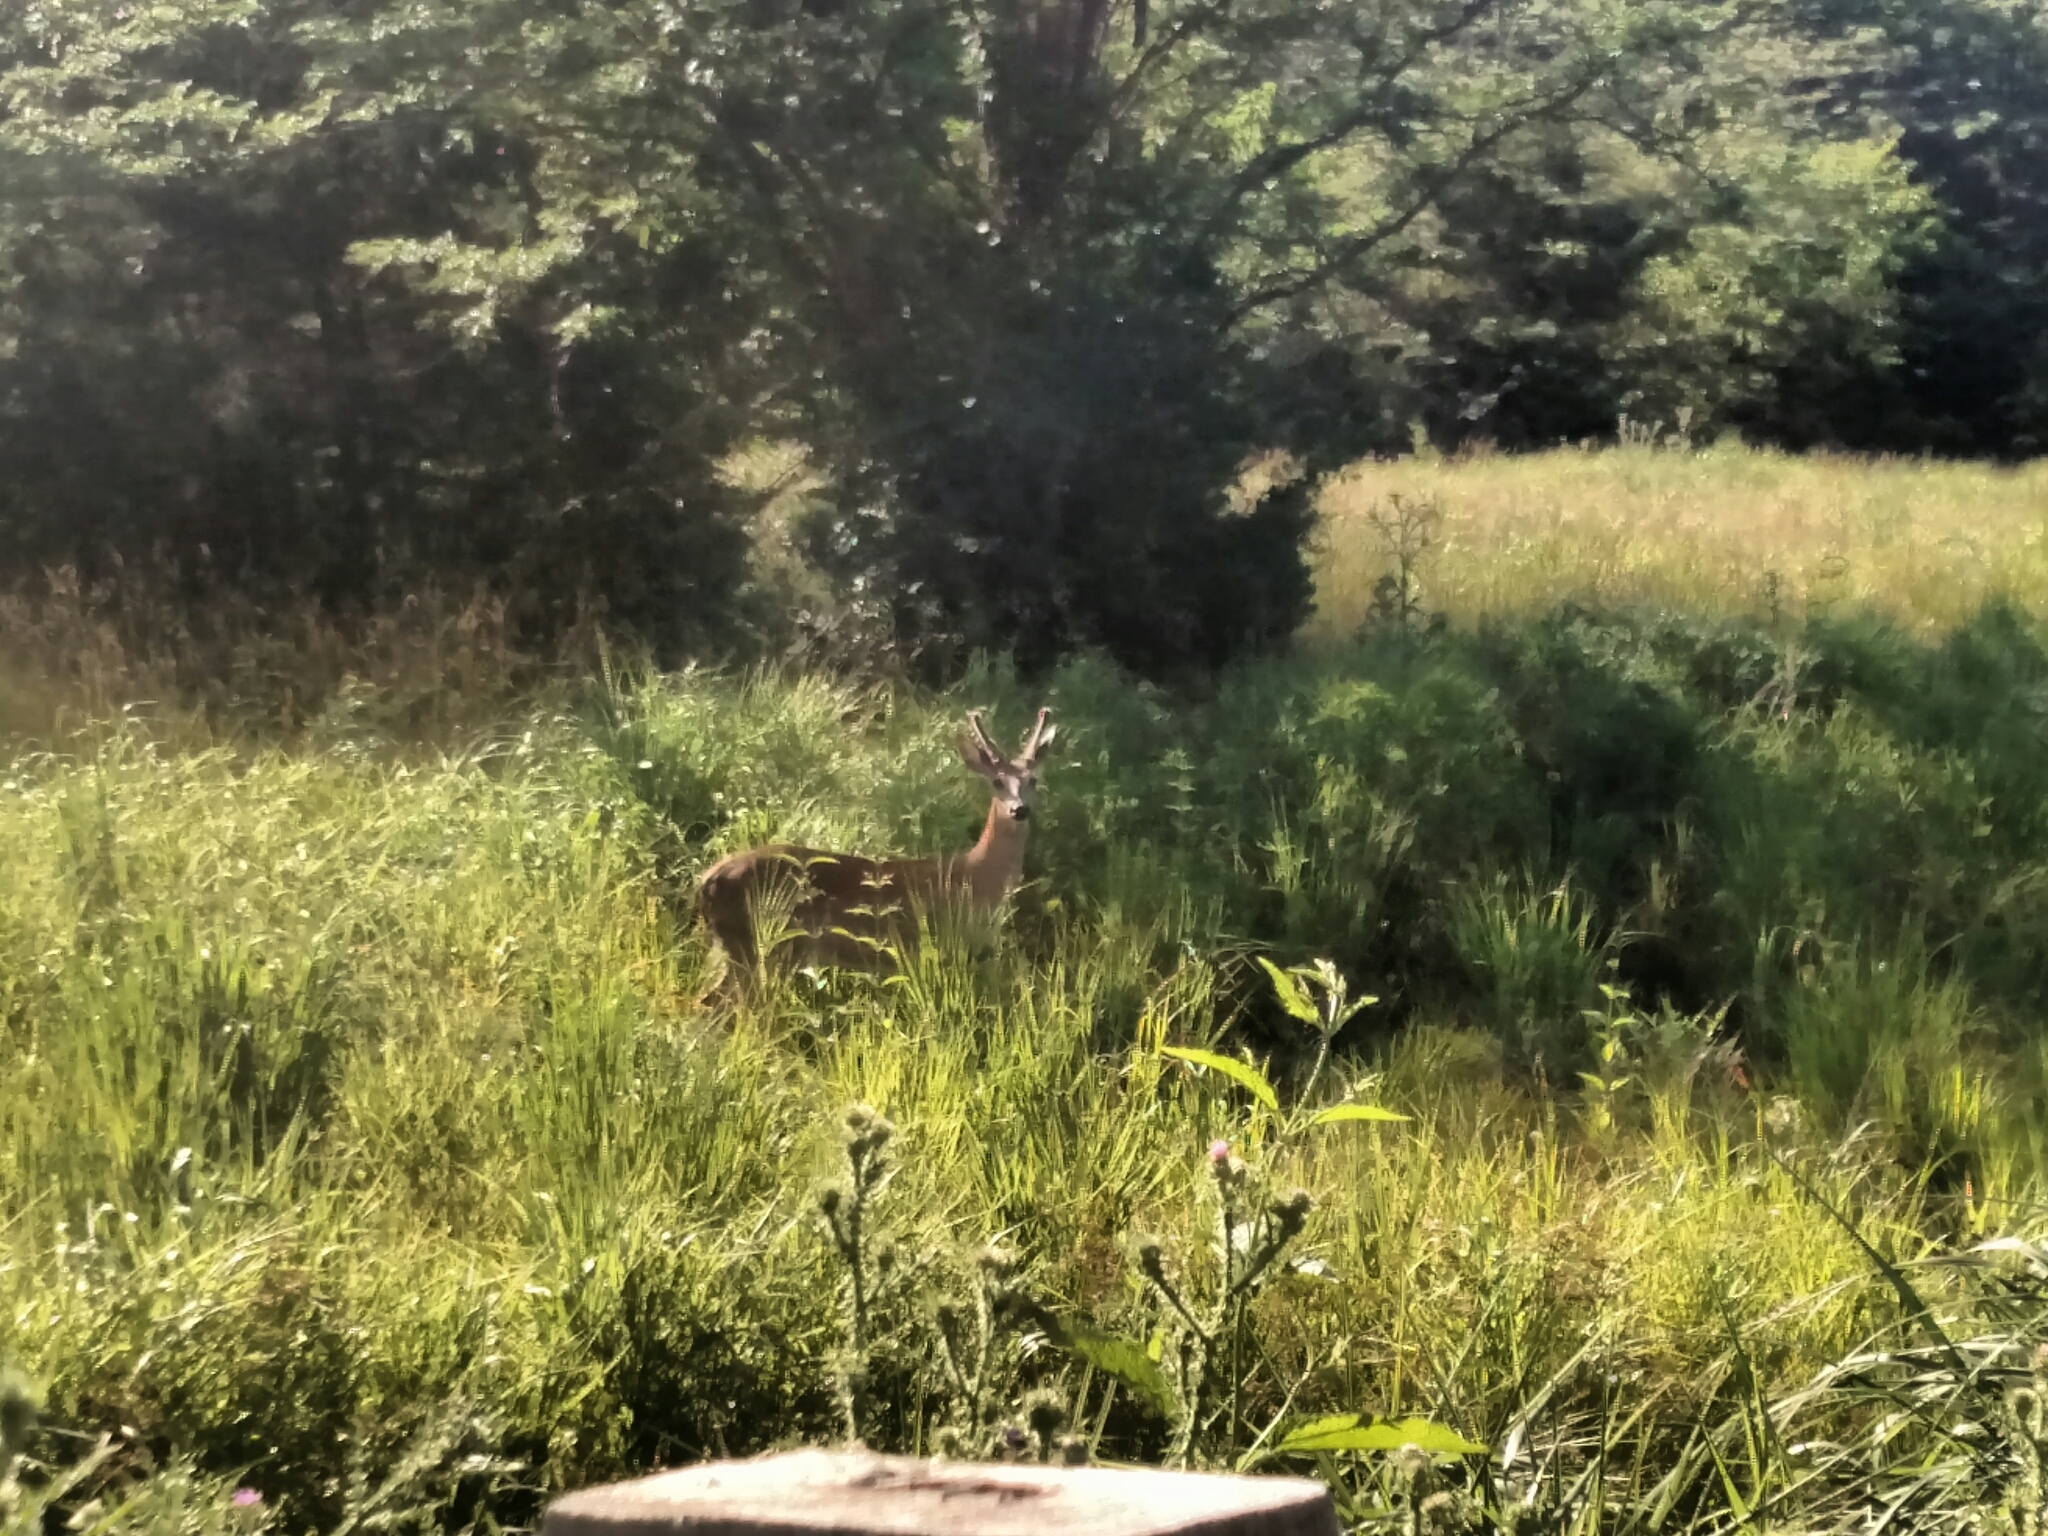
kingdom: Animalia
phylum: Chordata
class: Mammalia
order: Artiodactyla
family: Cervidae
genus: Odocoileus
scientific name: Odocoileus virginianus
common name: White-tailed deer
